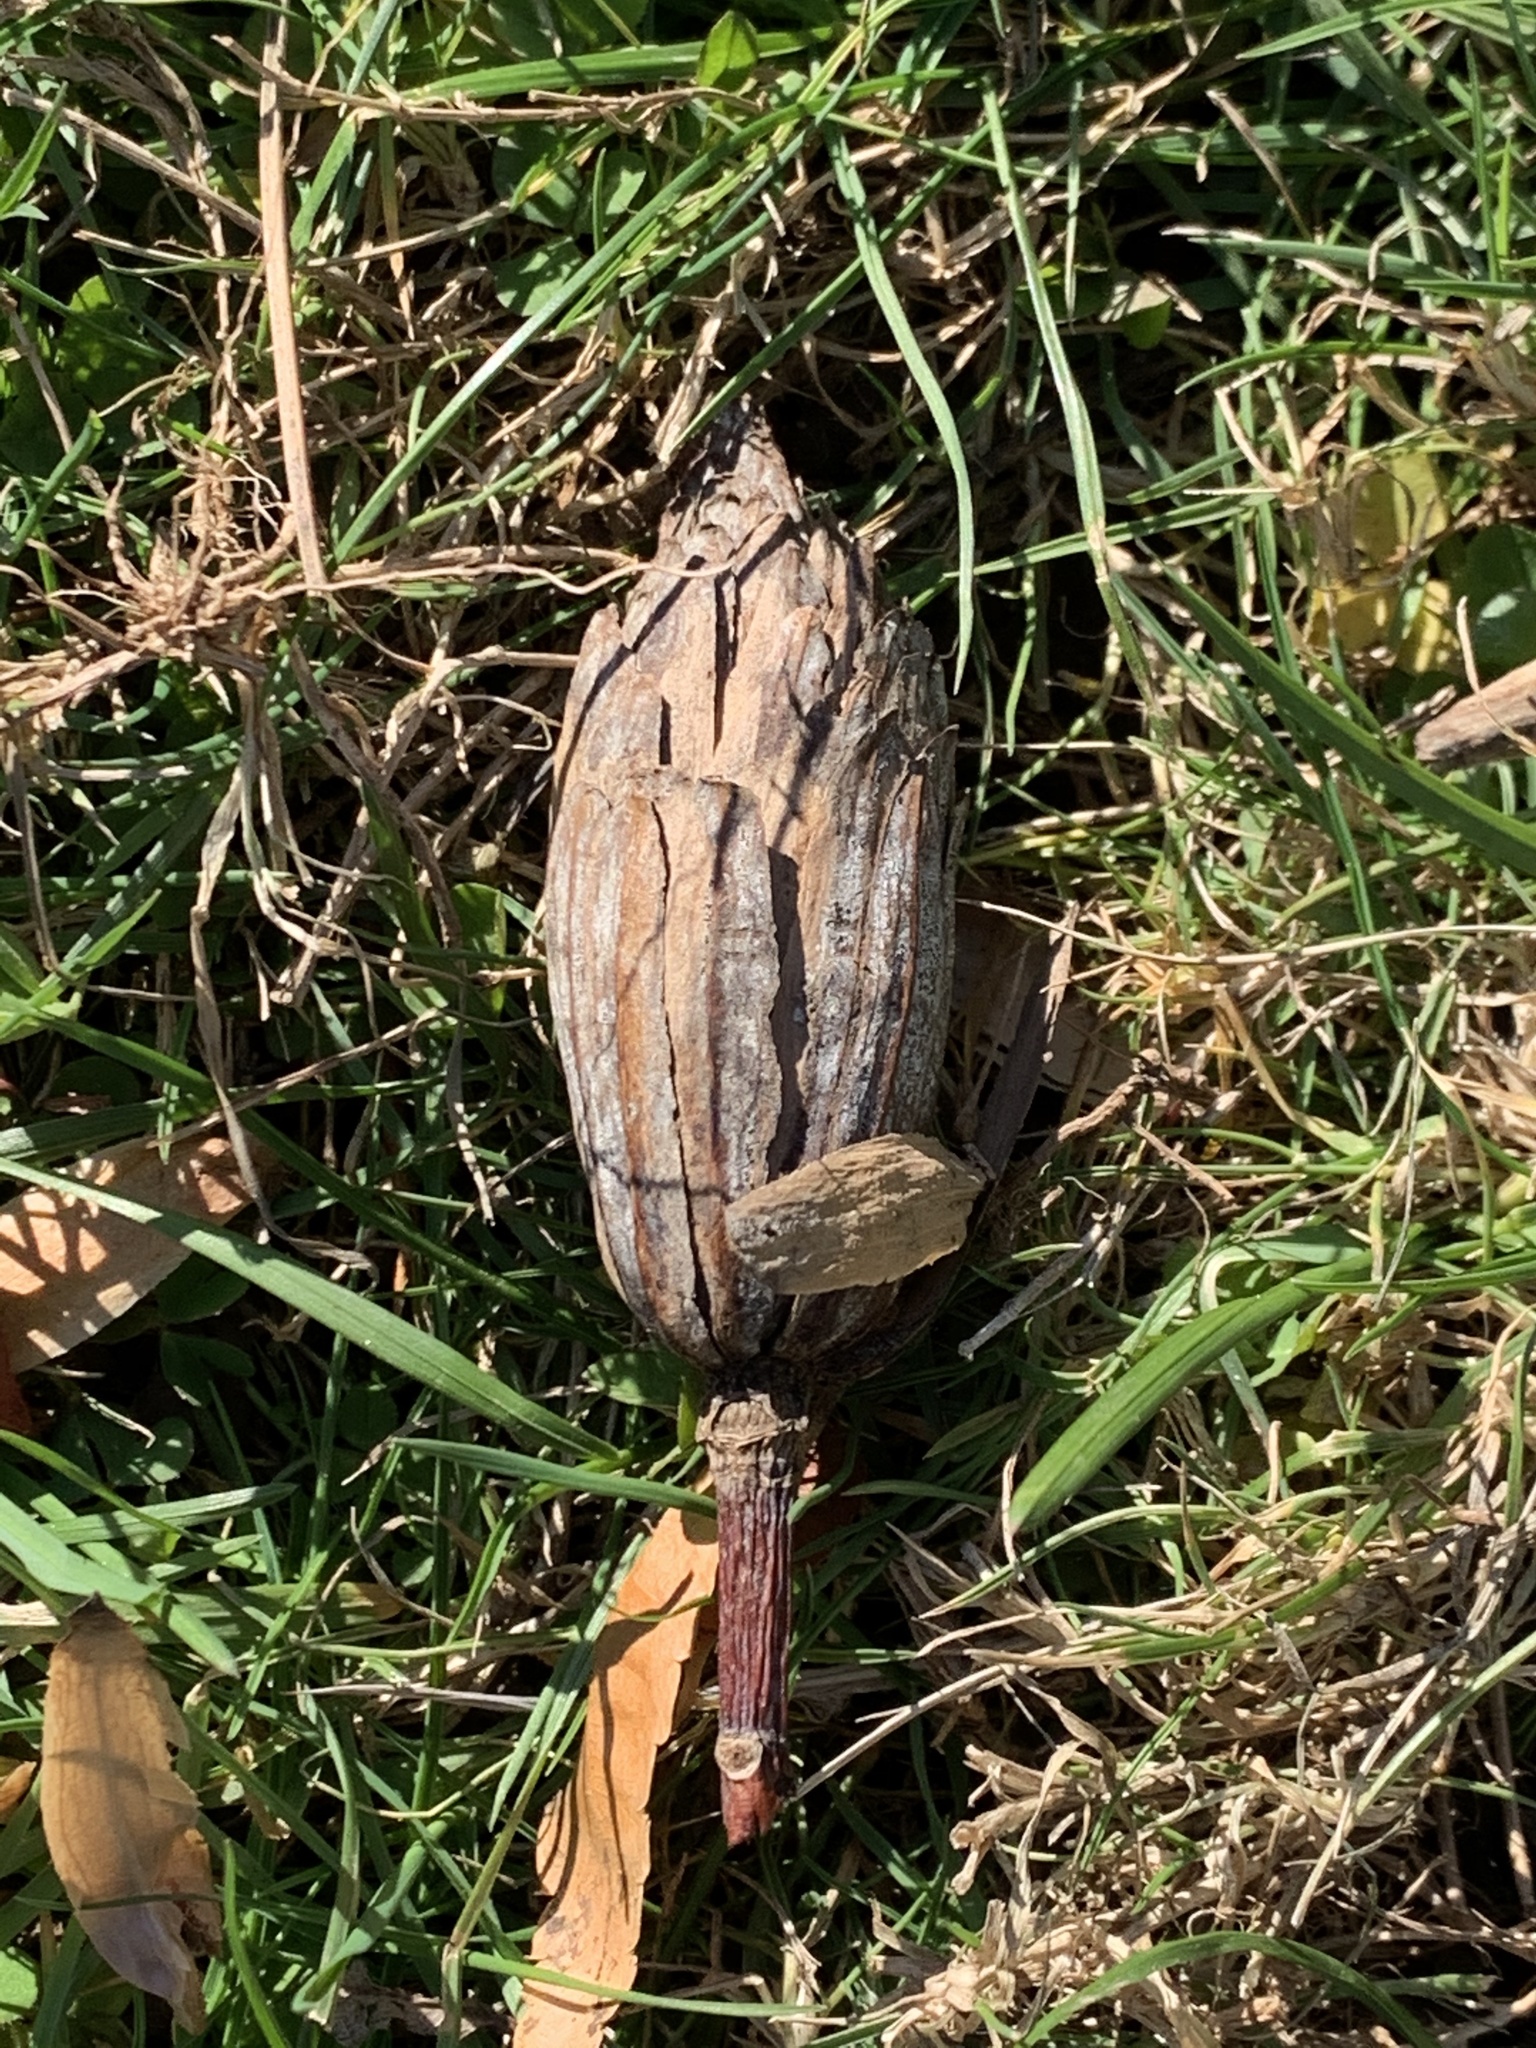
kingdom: Plantae
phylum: Tracheophyta
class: Magnoliopsida
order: Magnoliales
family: Magnoliaceae
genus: Liriodendron
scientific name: Liriodendron tulipifera
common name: Tulip tree
